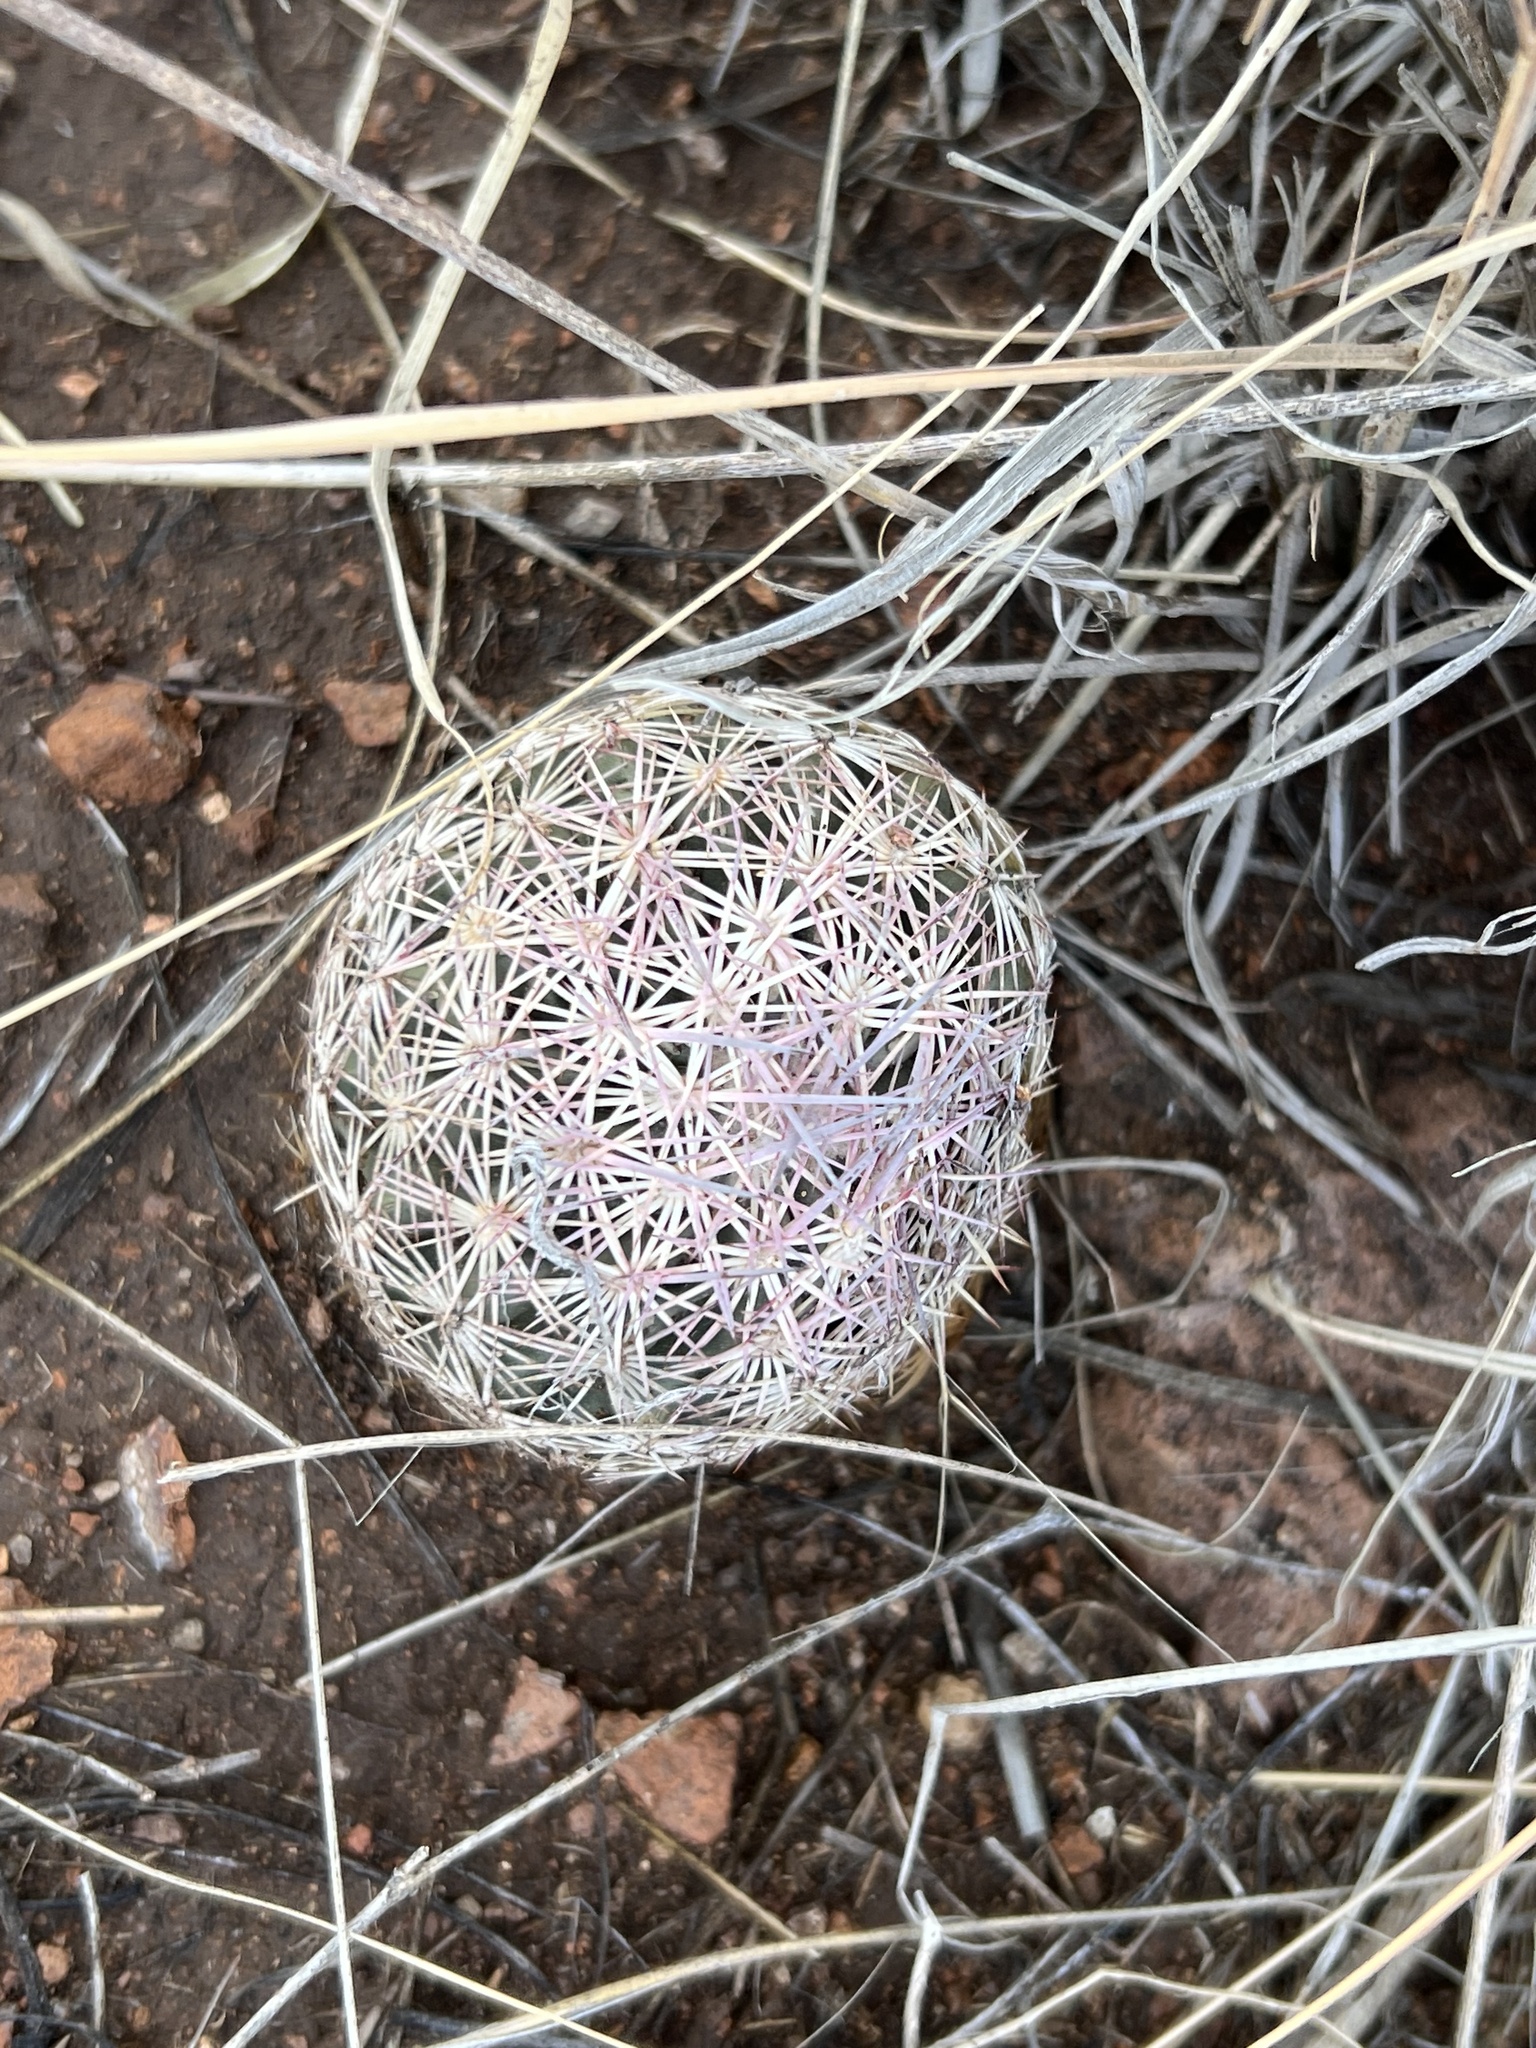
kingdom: Plantae
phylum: Tracheophyta
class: Magnoliopsida
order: Caryophyllales
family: Cactaceae
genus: Sclerocactus
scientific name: Sclerocactus johnsonii
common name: Eight-spine fishhook cactus
